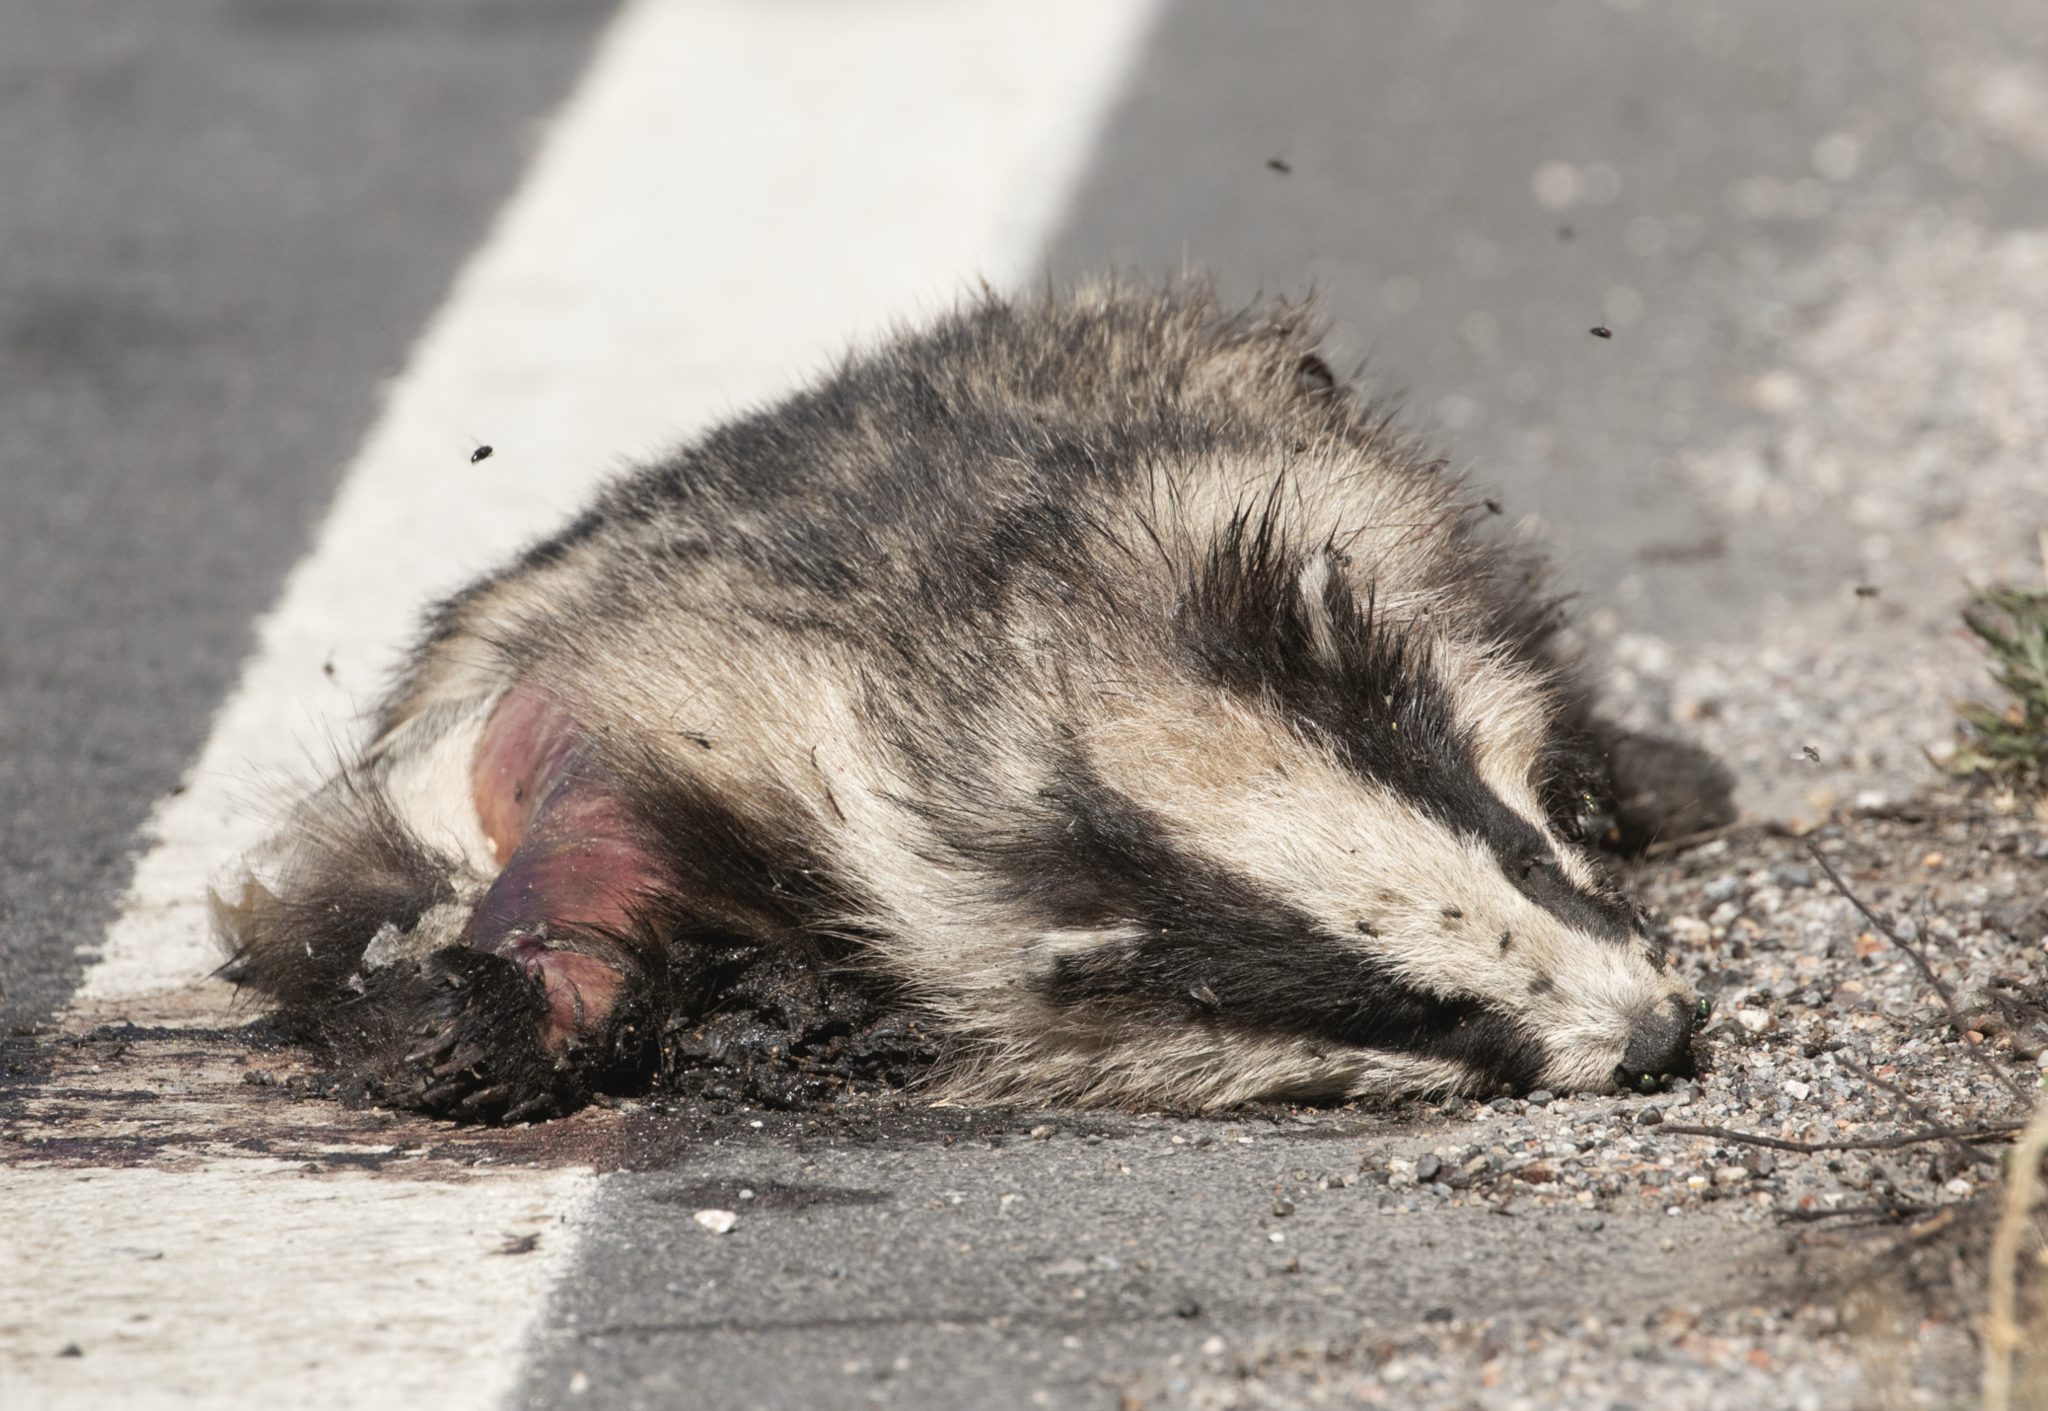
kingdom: Animalia
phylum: Chordata
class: Mammalia
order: Carnivora
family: Mustelidae
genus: Meles
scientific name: Meles meles
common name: Eurasian badger
